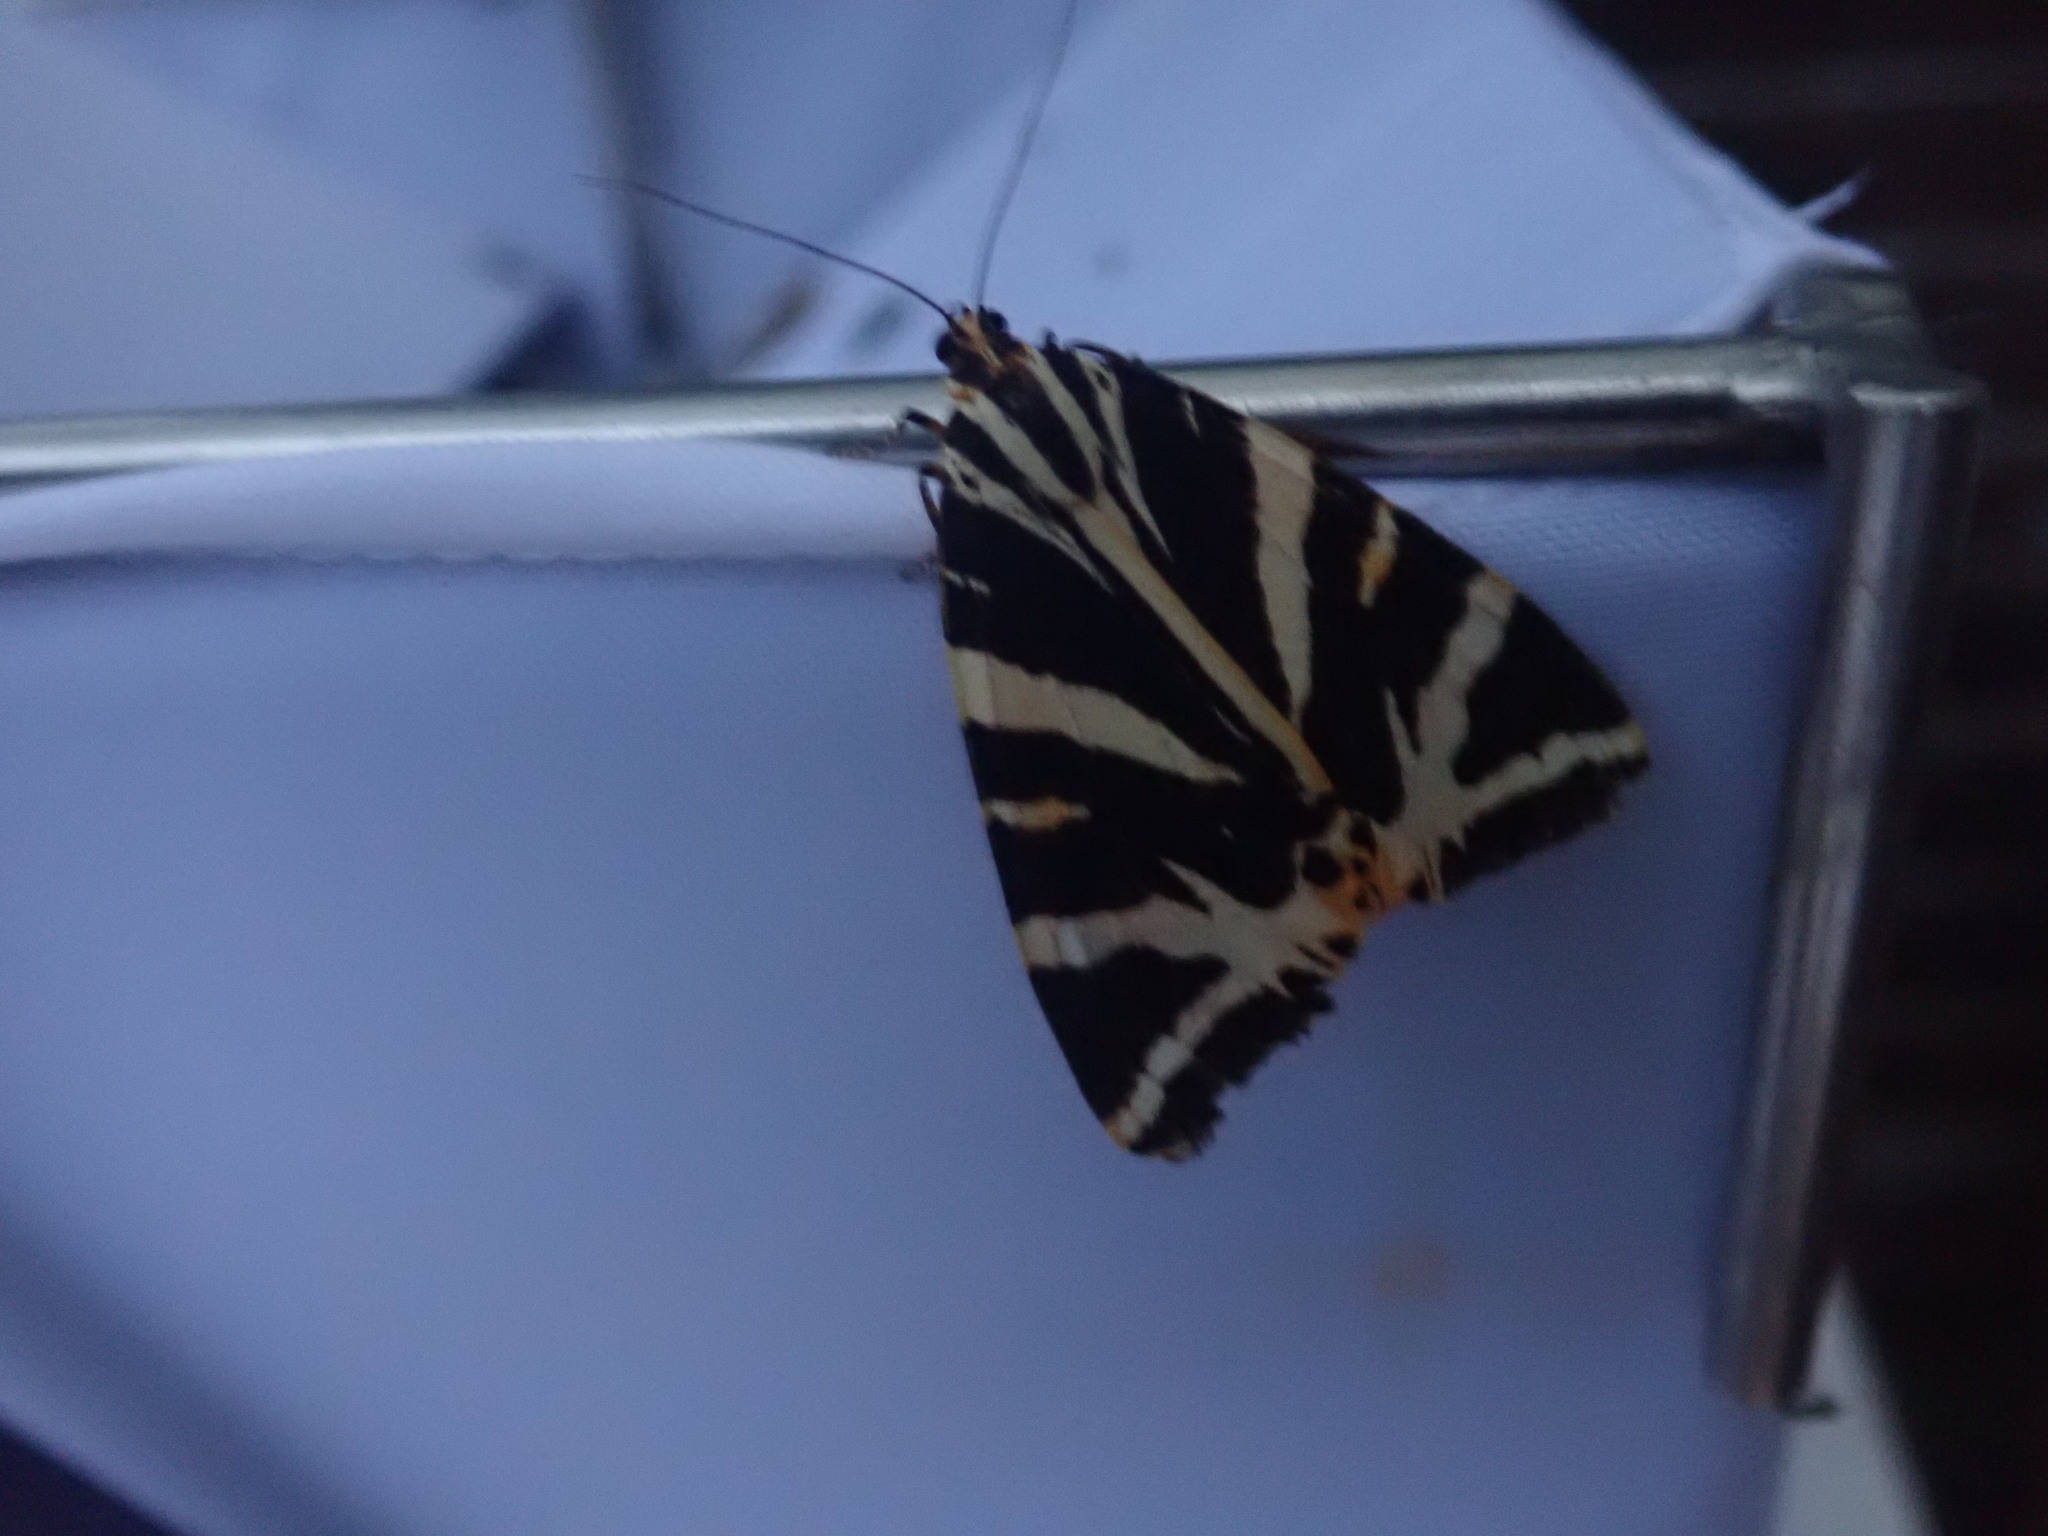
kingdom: Animalia
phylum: Arthropoda
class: Insecta
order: Lepidoptera
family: Erebidae
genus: Euplagia
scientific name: Euplagia quadripunctaria
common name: Jersey tiger
